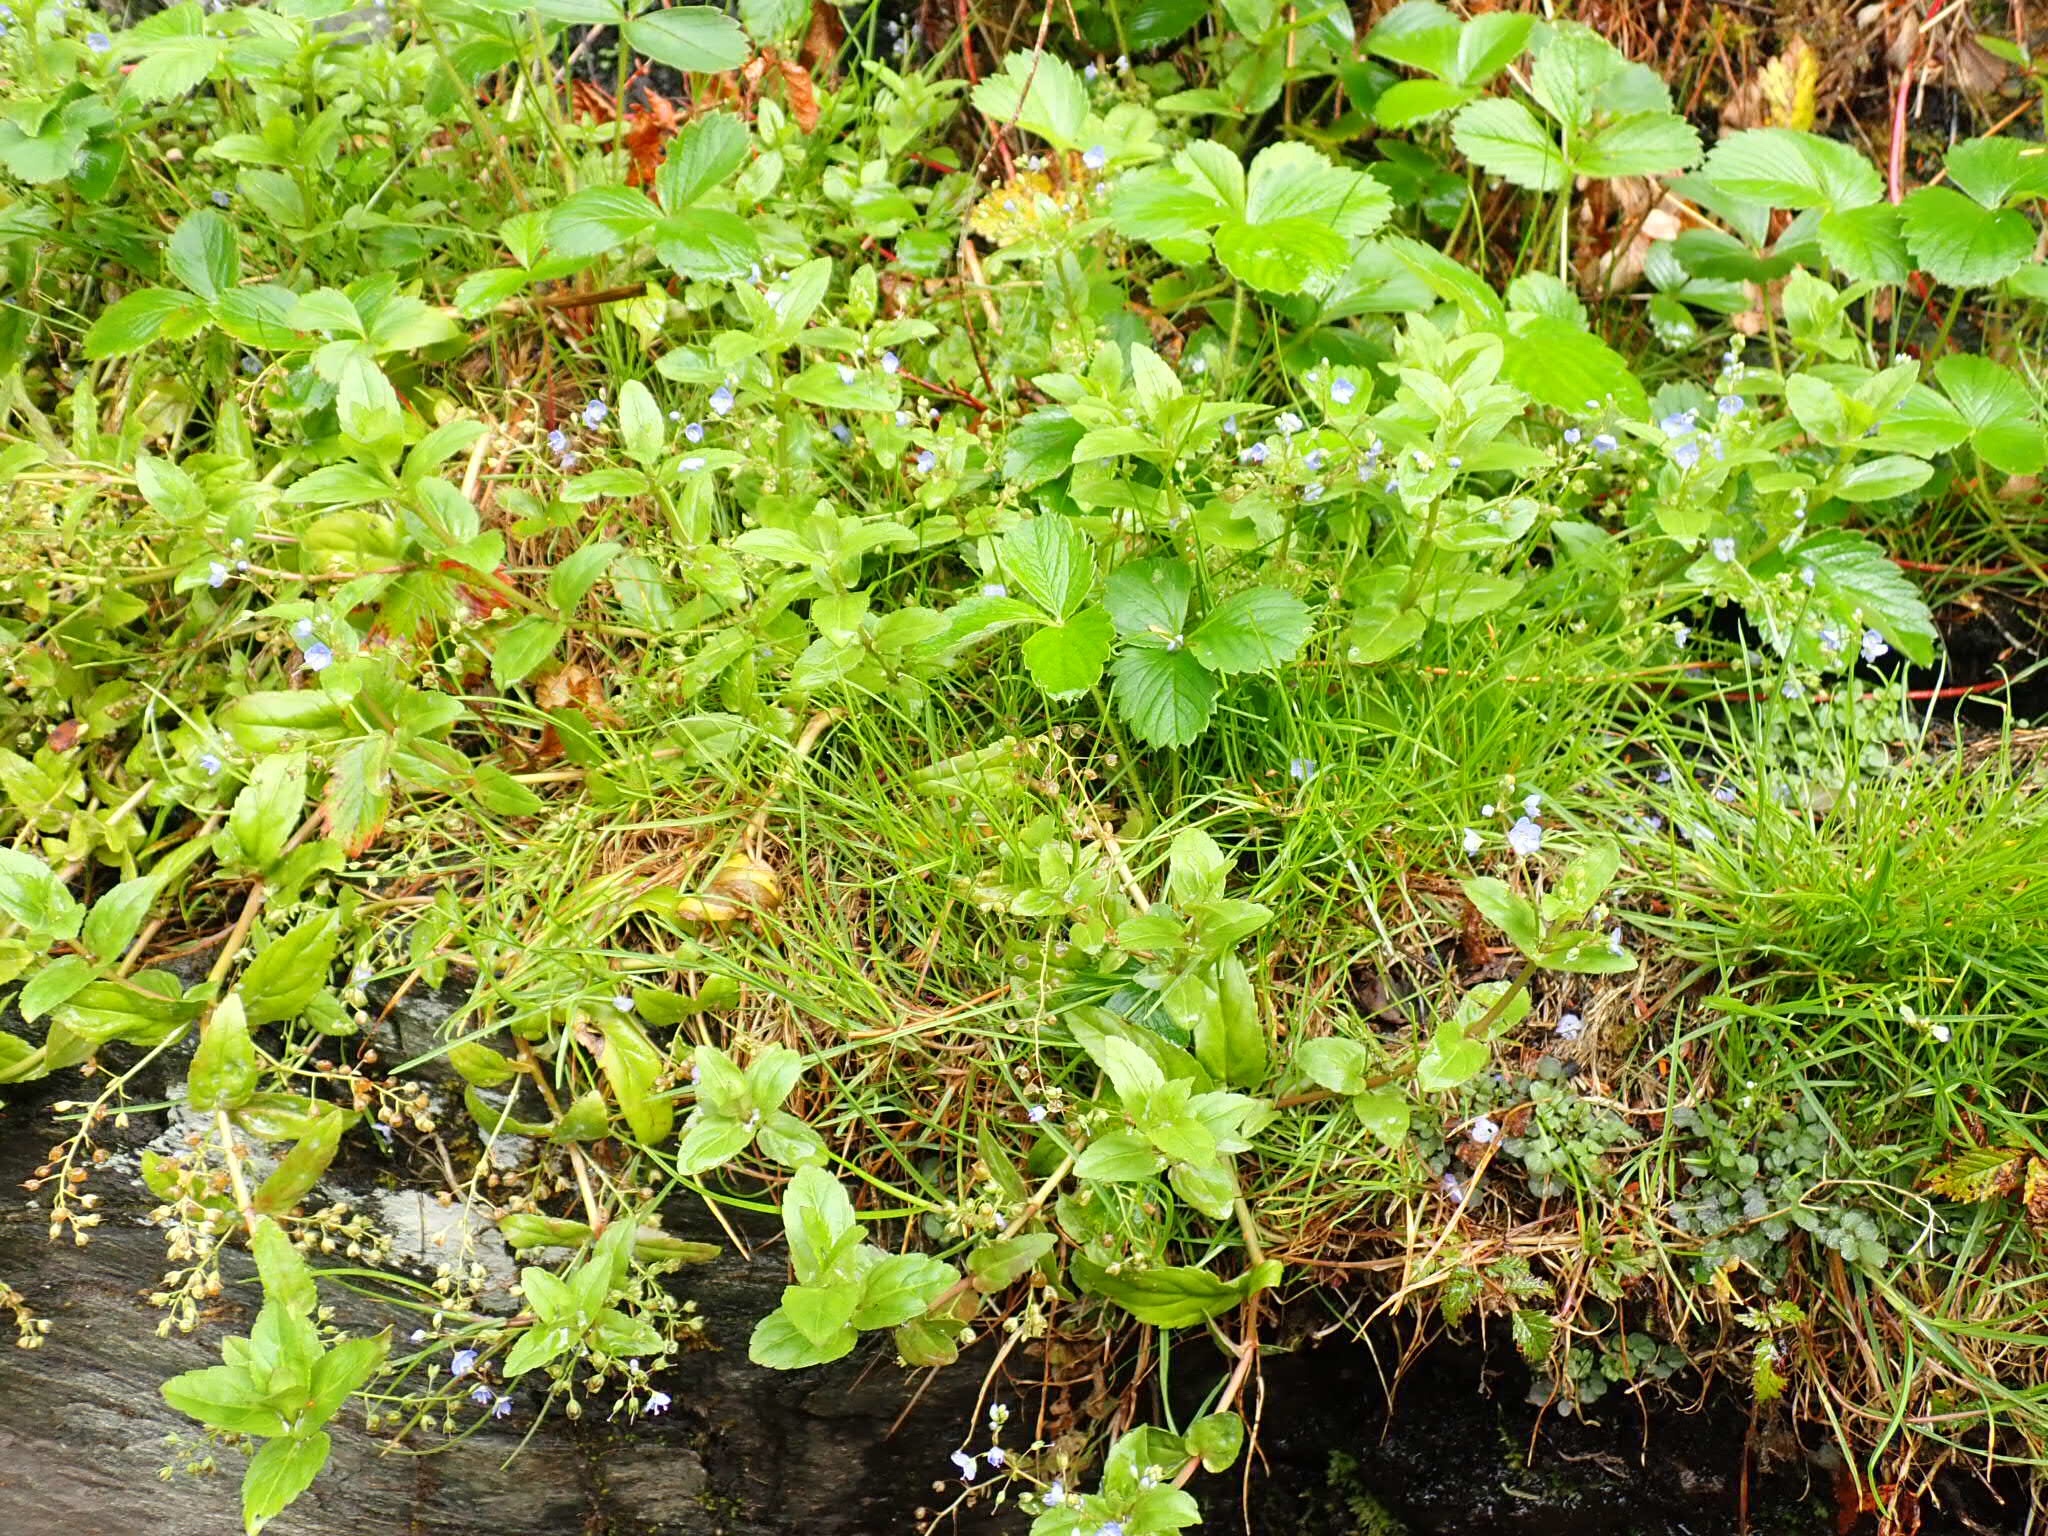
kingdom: Plantae
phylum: Tracheophyta
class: Magnoliopsida
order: Lamiales
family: Plantaginaceae
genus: Veronica
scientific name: Veronica americana
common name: American brooklime
